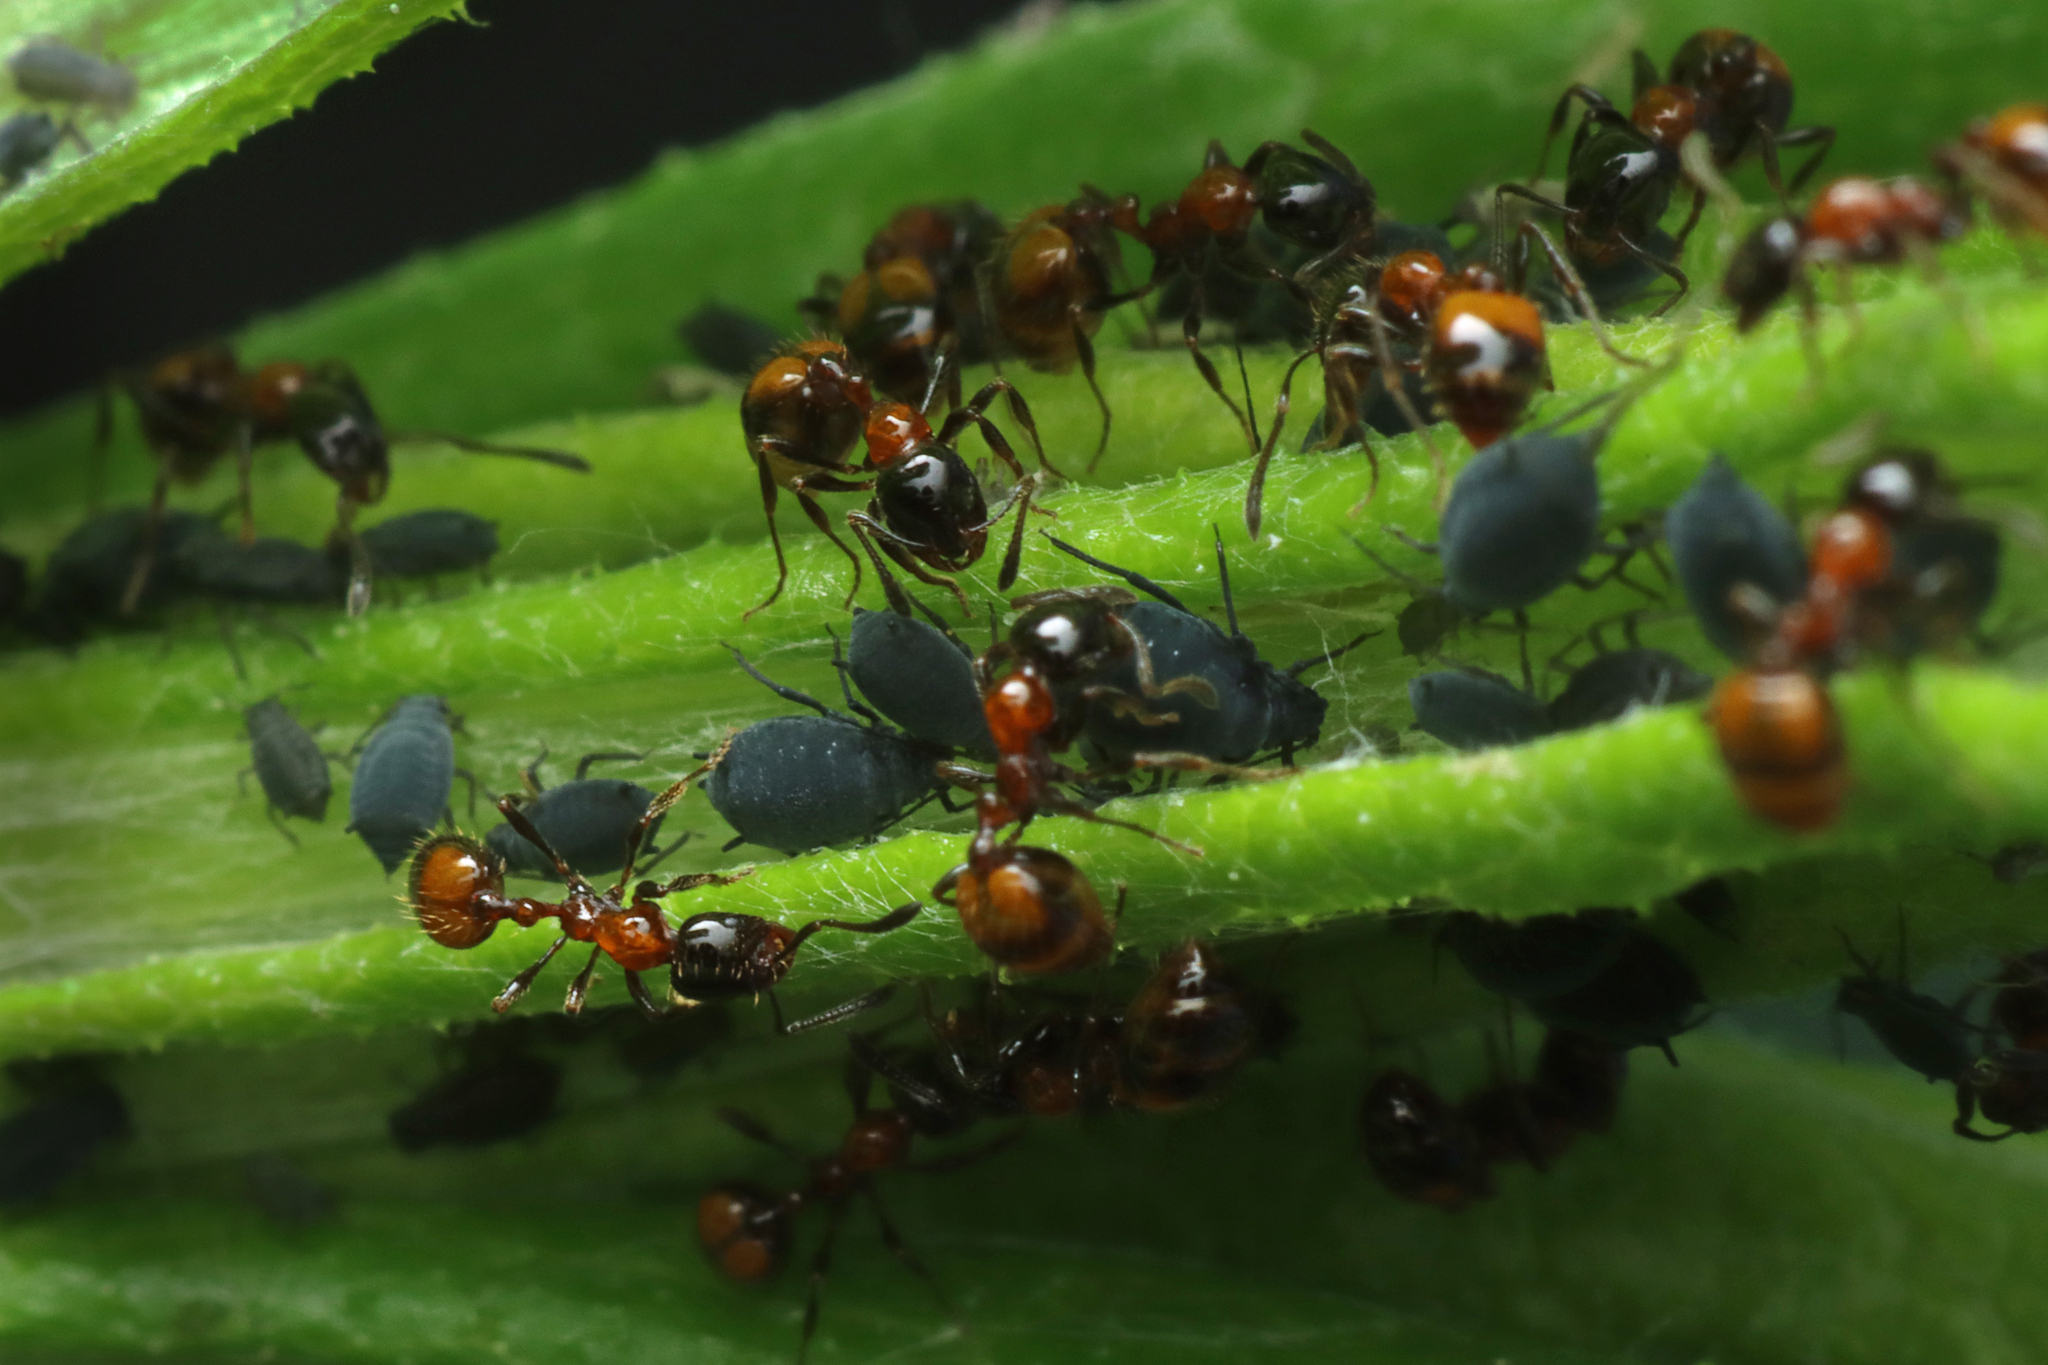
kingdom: Animalia
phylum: Arthropoda
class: Insecta
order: Hymenoptera
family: Formicidae
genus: Chelaner
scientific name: Chelaner
